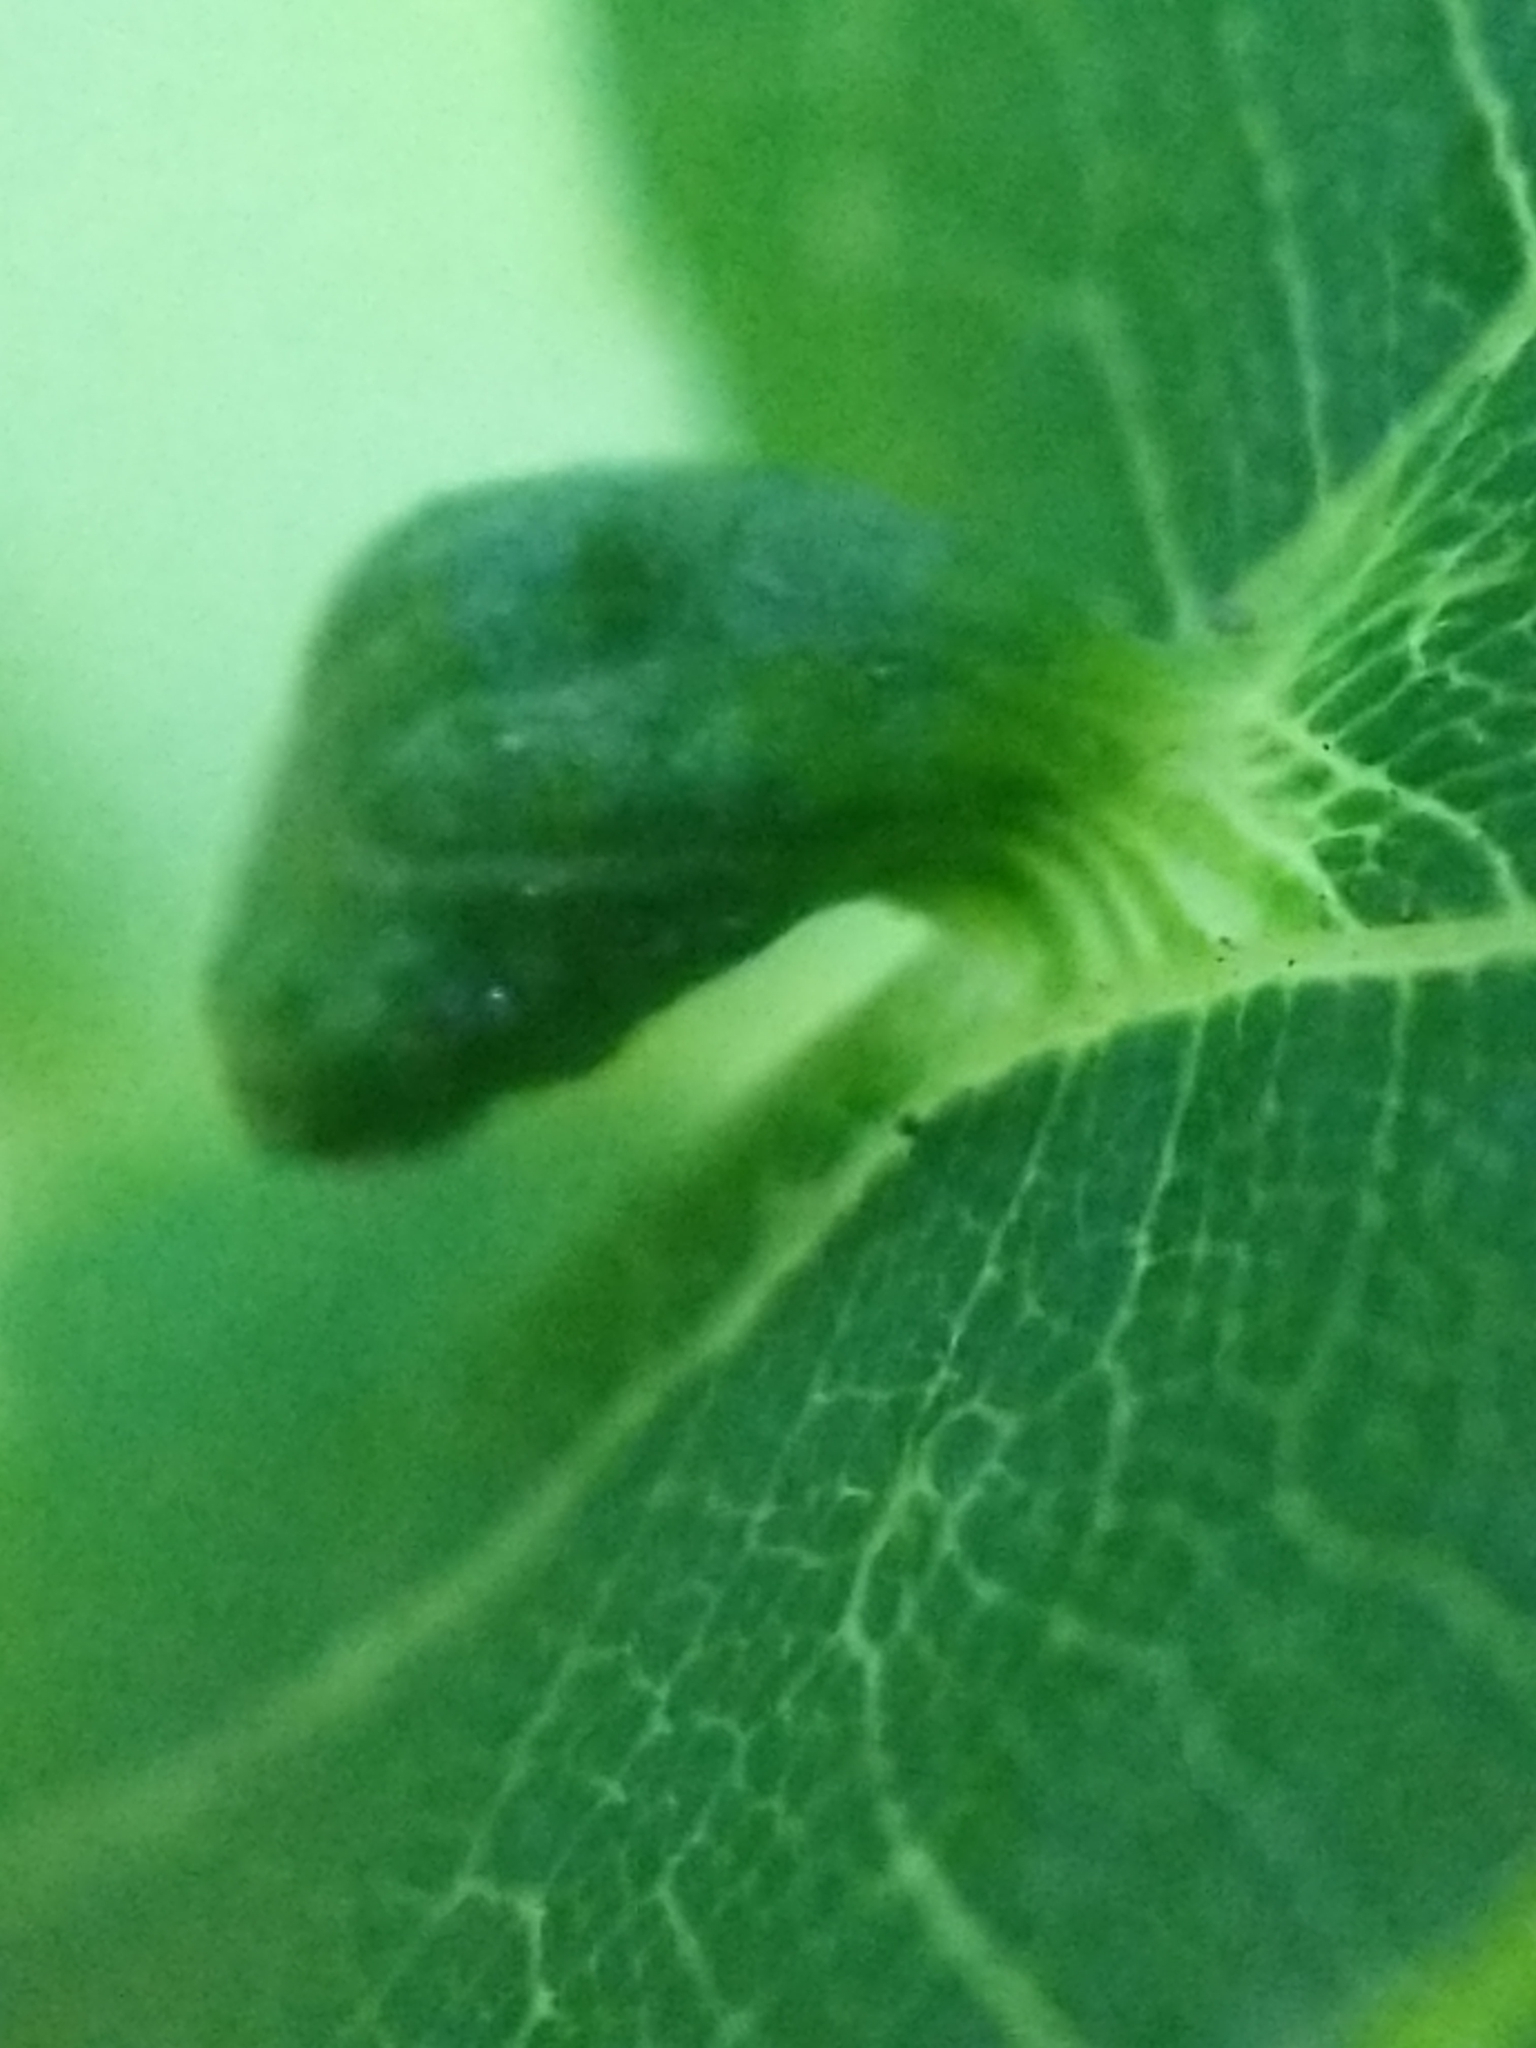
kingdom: Animalia
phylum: Arthropoda
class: Arachnida
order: Trombidiformes
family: Eriophyidae
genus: Aceria
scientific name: Aceria brachytarsus
